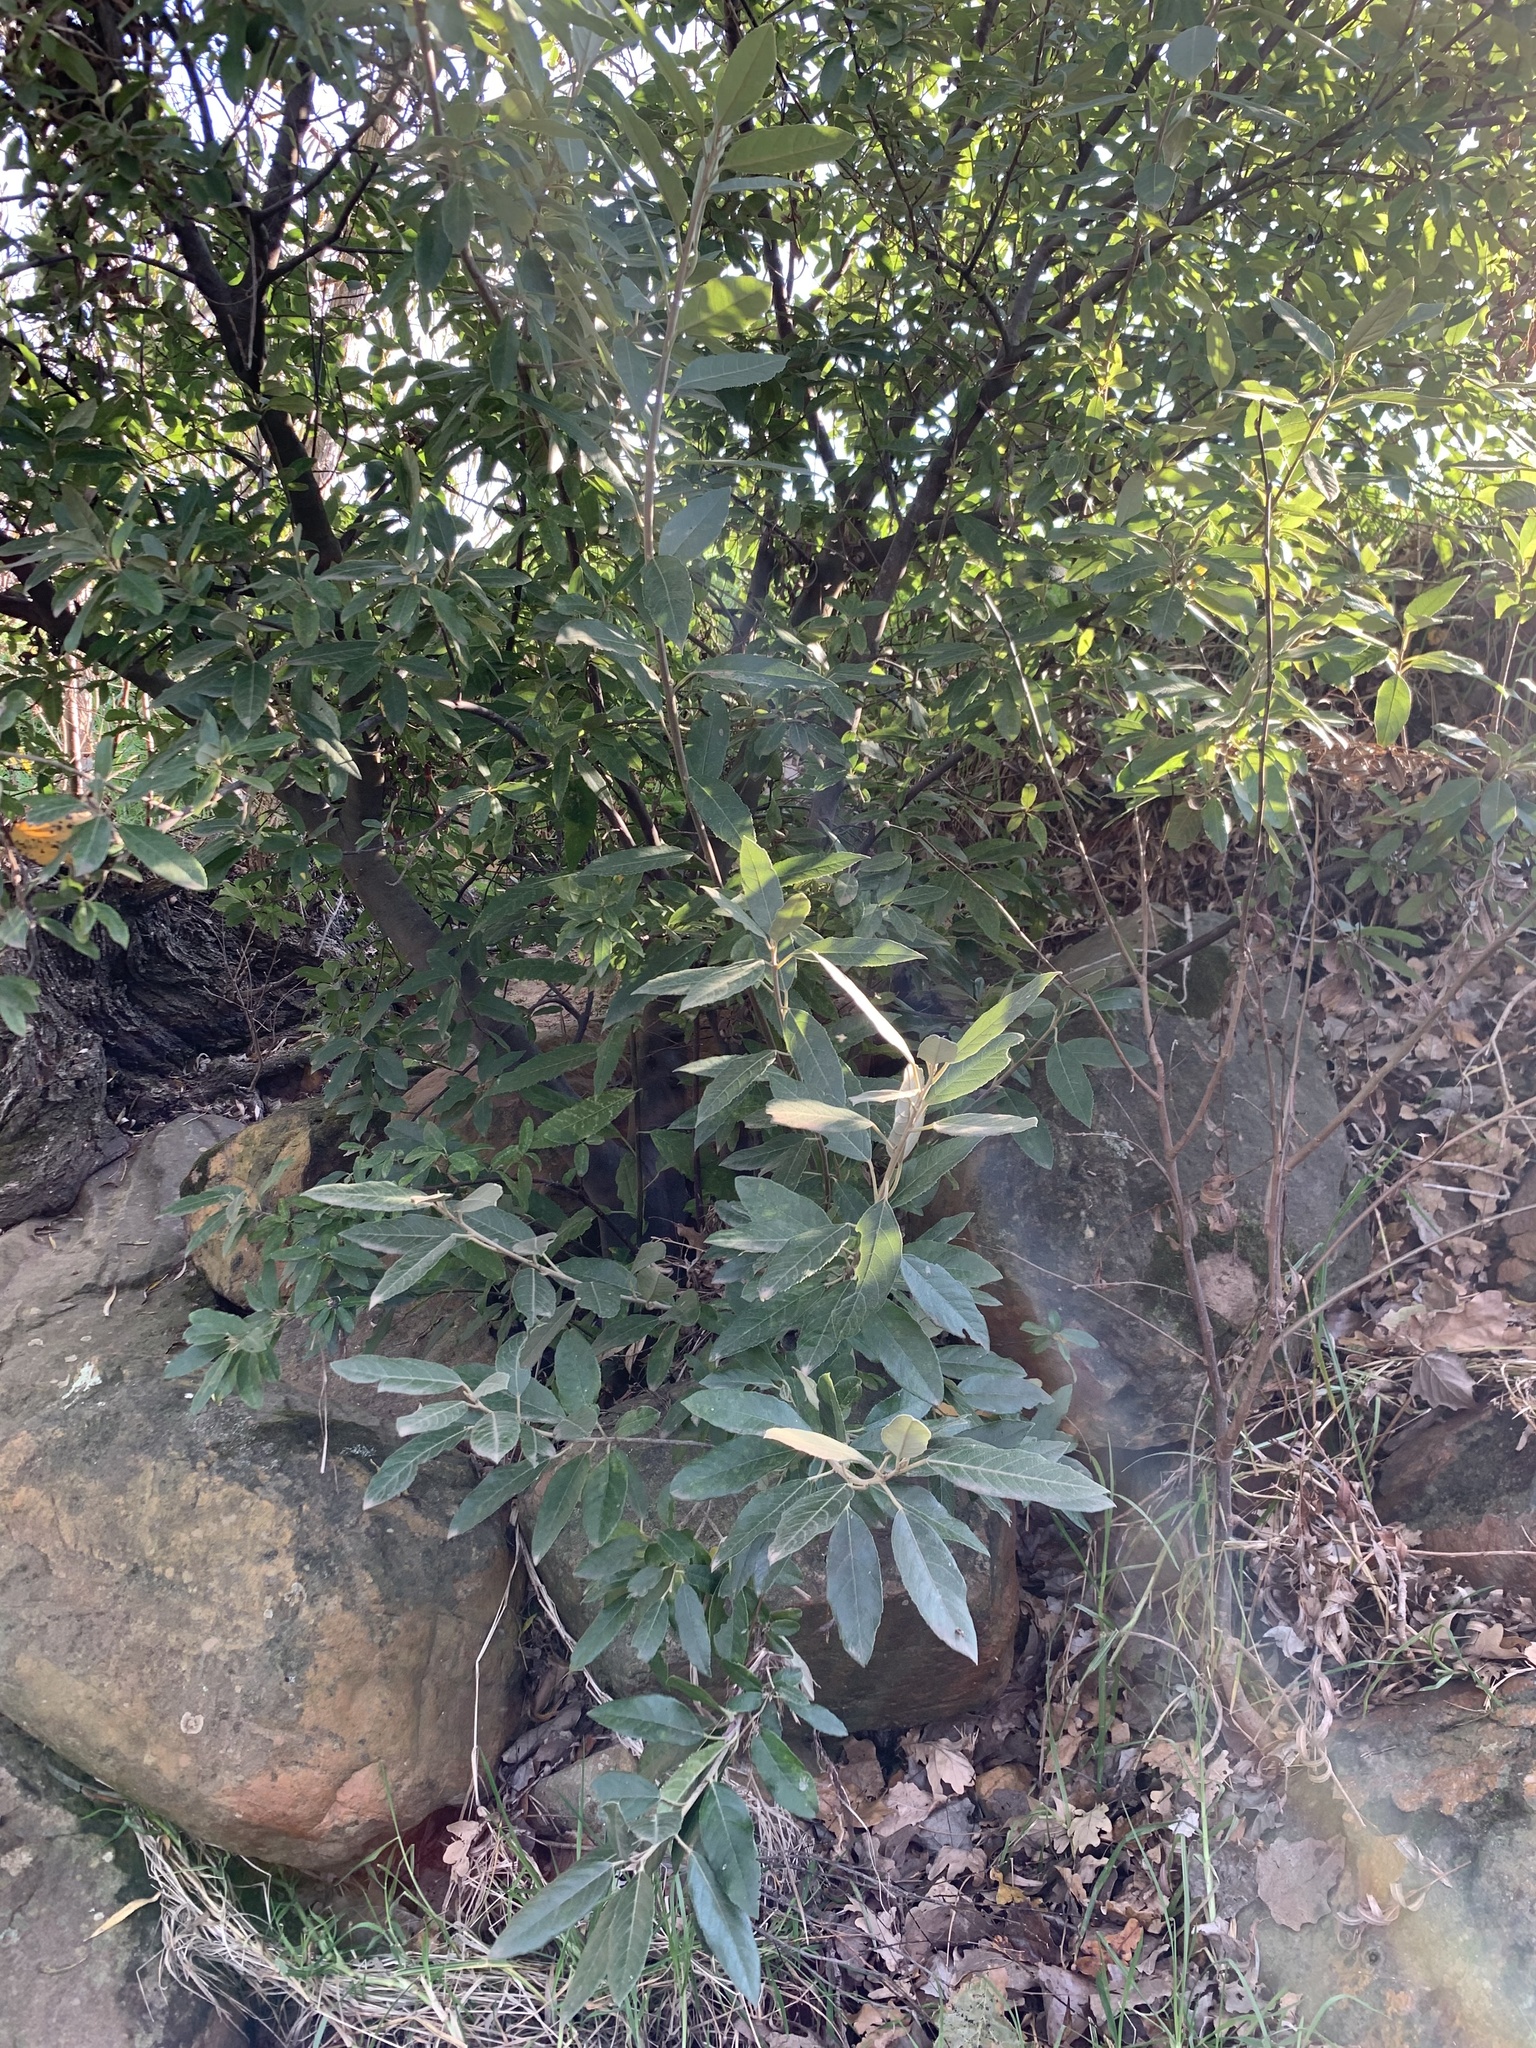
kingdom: Plantae
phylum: Tracheophyta
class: Magnoliopsida
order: Malpighiales
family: Achariaceae
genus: Kiggelaria
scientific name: Kiggelaria africana
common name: Wild peach
